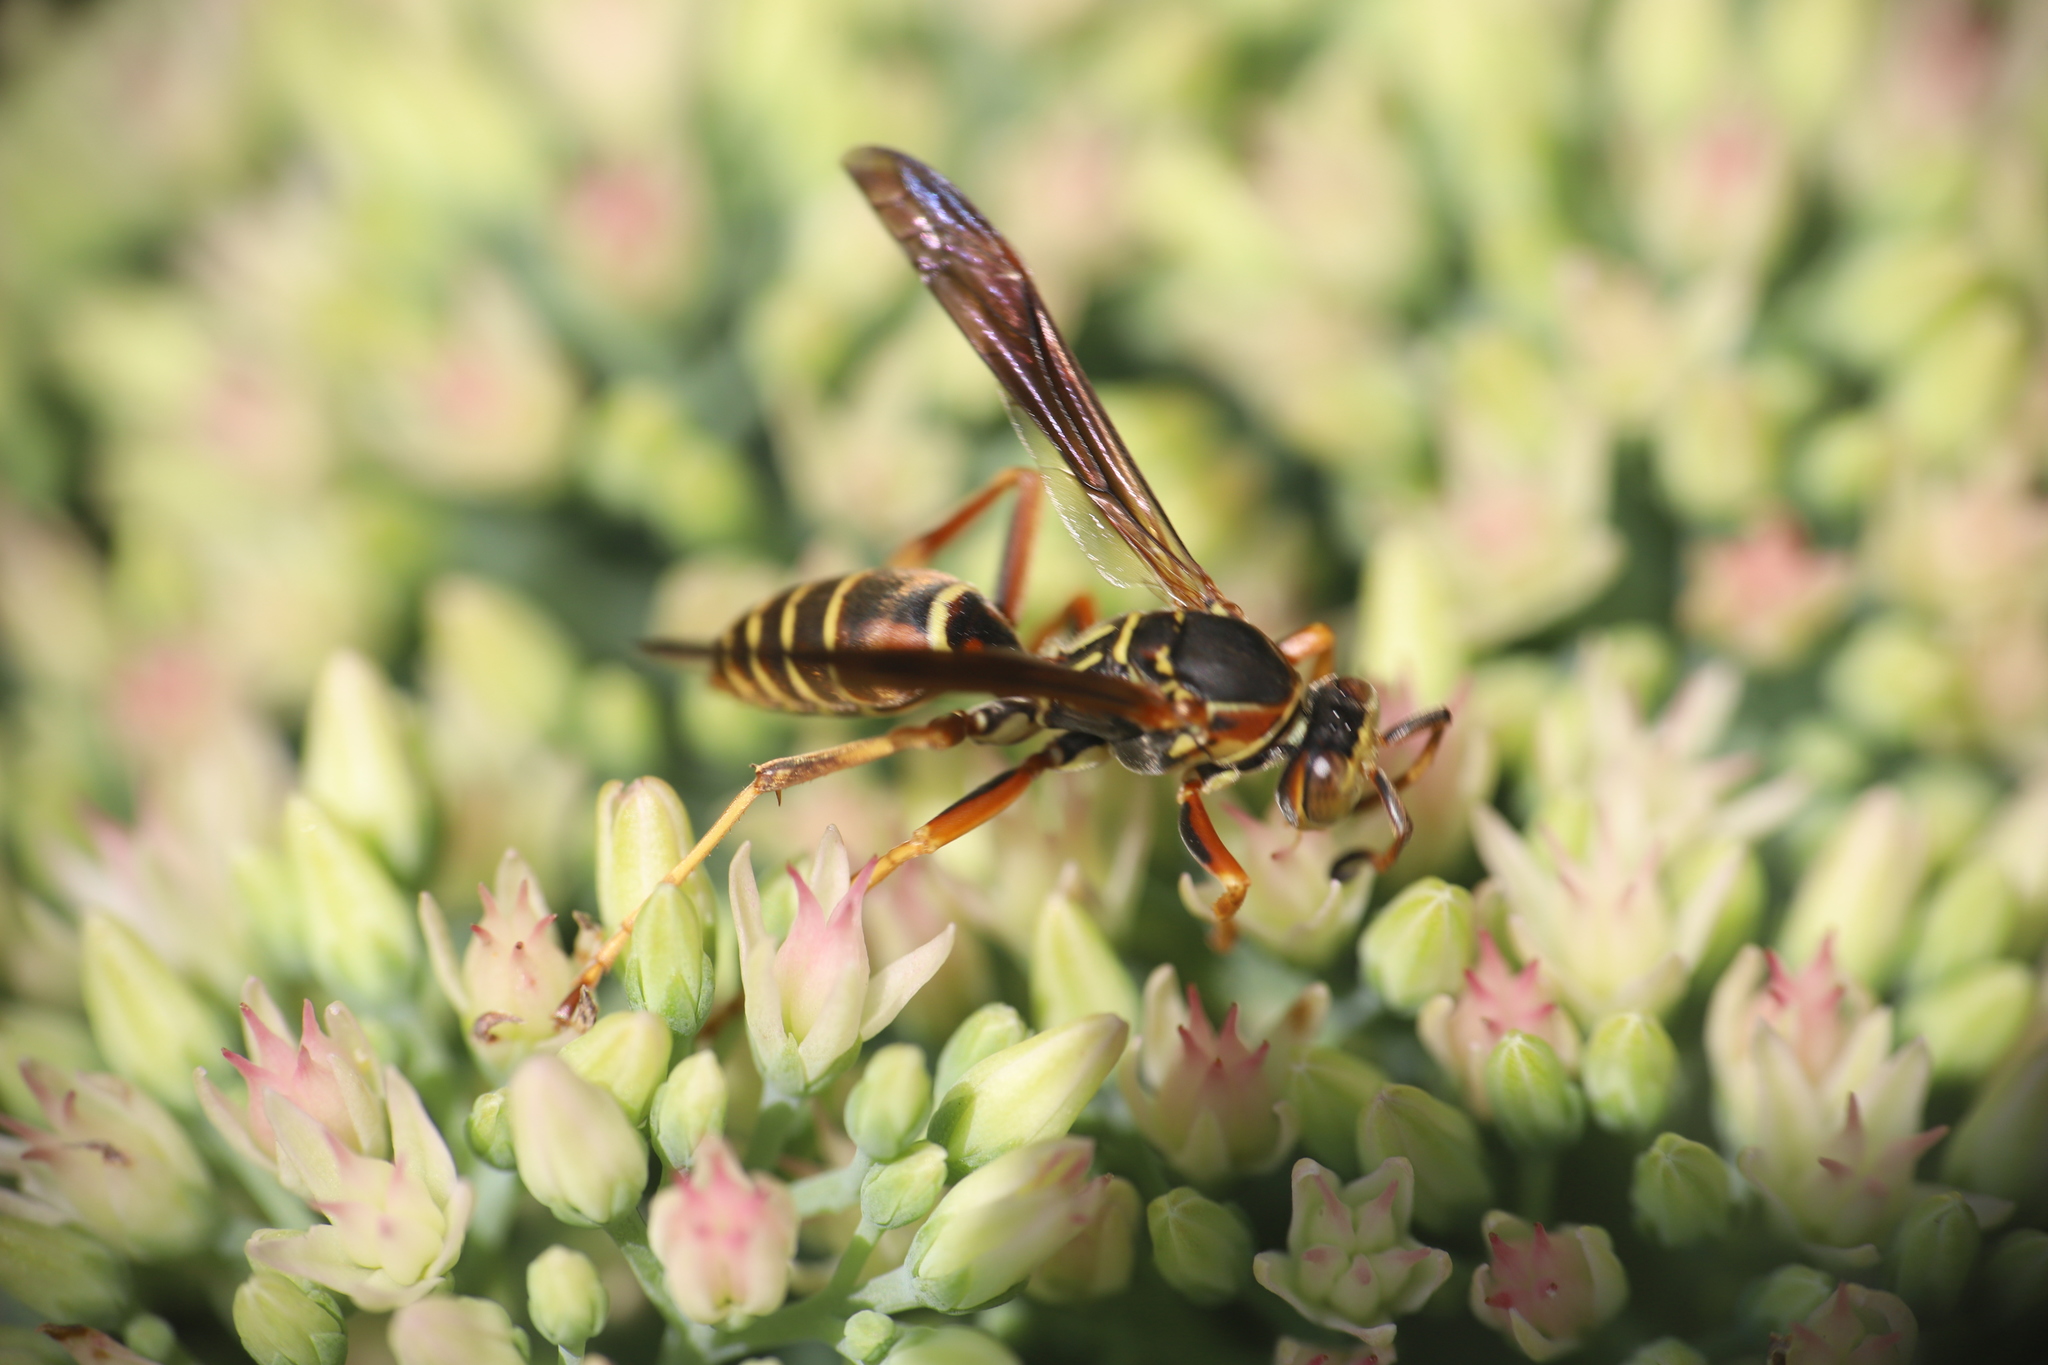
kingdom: Animalia
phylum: Arthropoda
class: Insecta
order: Hymenoptera
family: Eumenidae
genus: Polistes
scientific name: Polistes fuscatus
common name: Dark paper wasp
